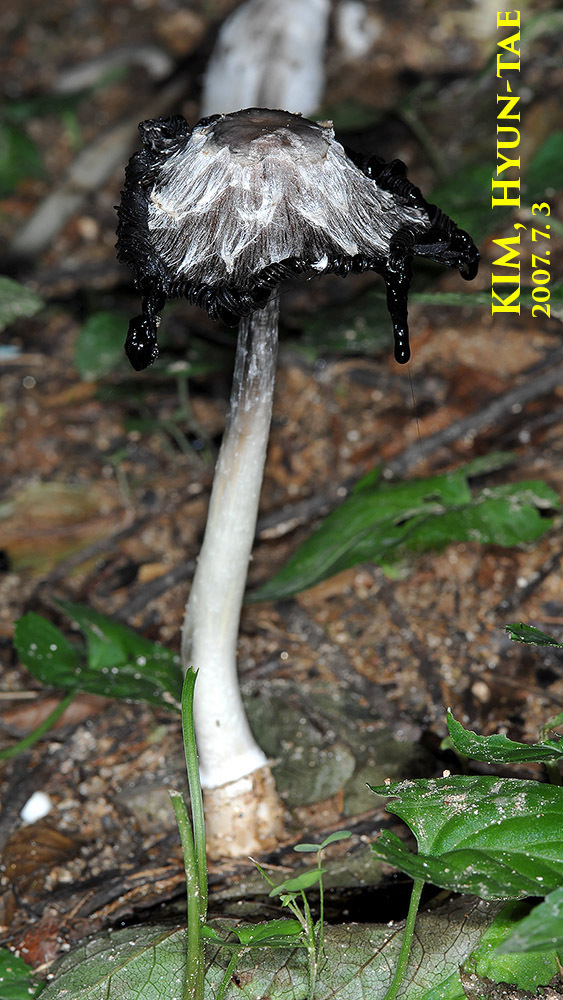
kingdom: Fungi
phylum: Basidiomycota
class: Agaricomycetes
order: Agaricales
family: Psathyrellaceae
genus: Coprinopsis
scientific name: Coprinopsis atramentaria
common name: Common ink-cap
